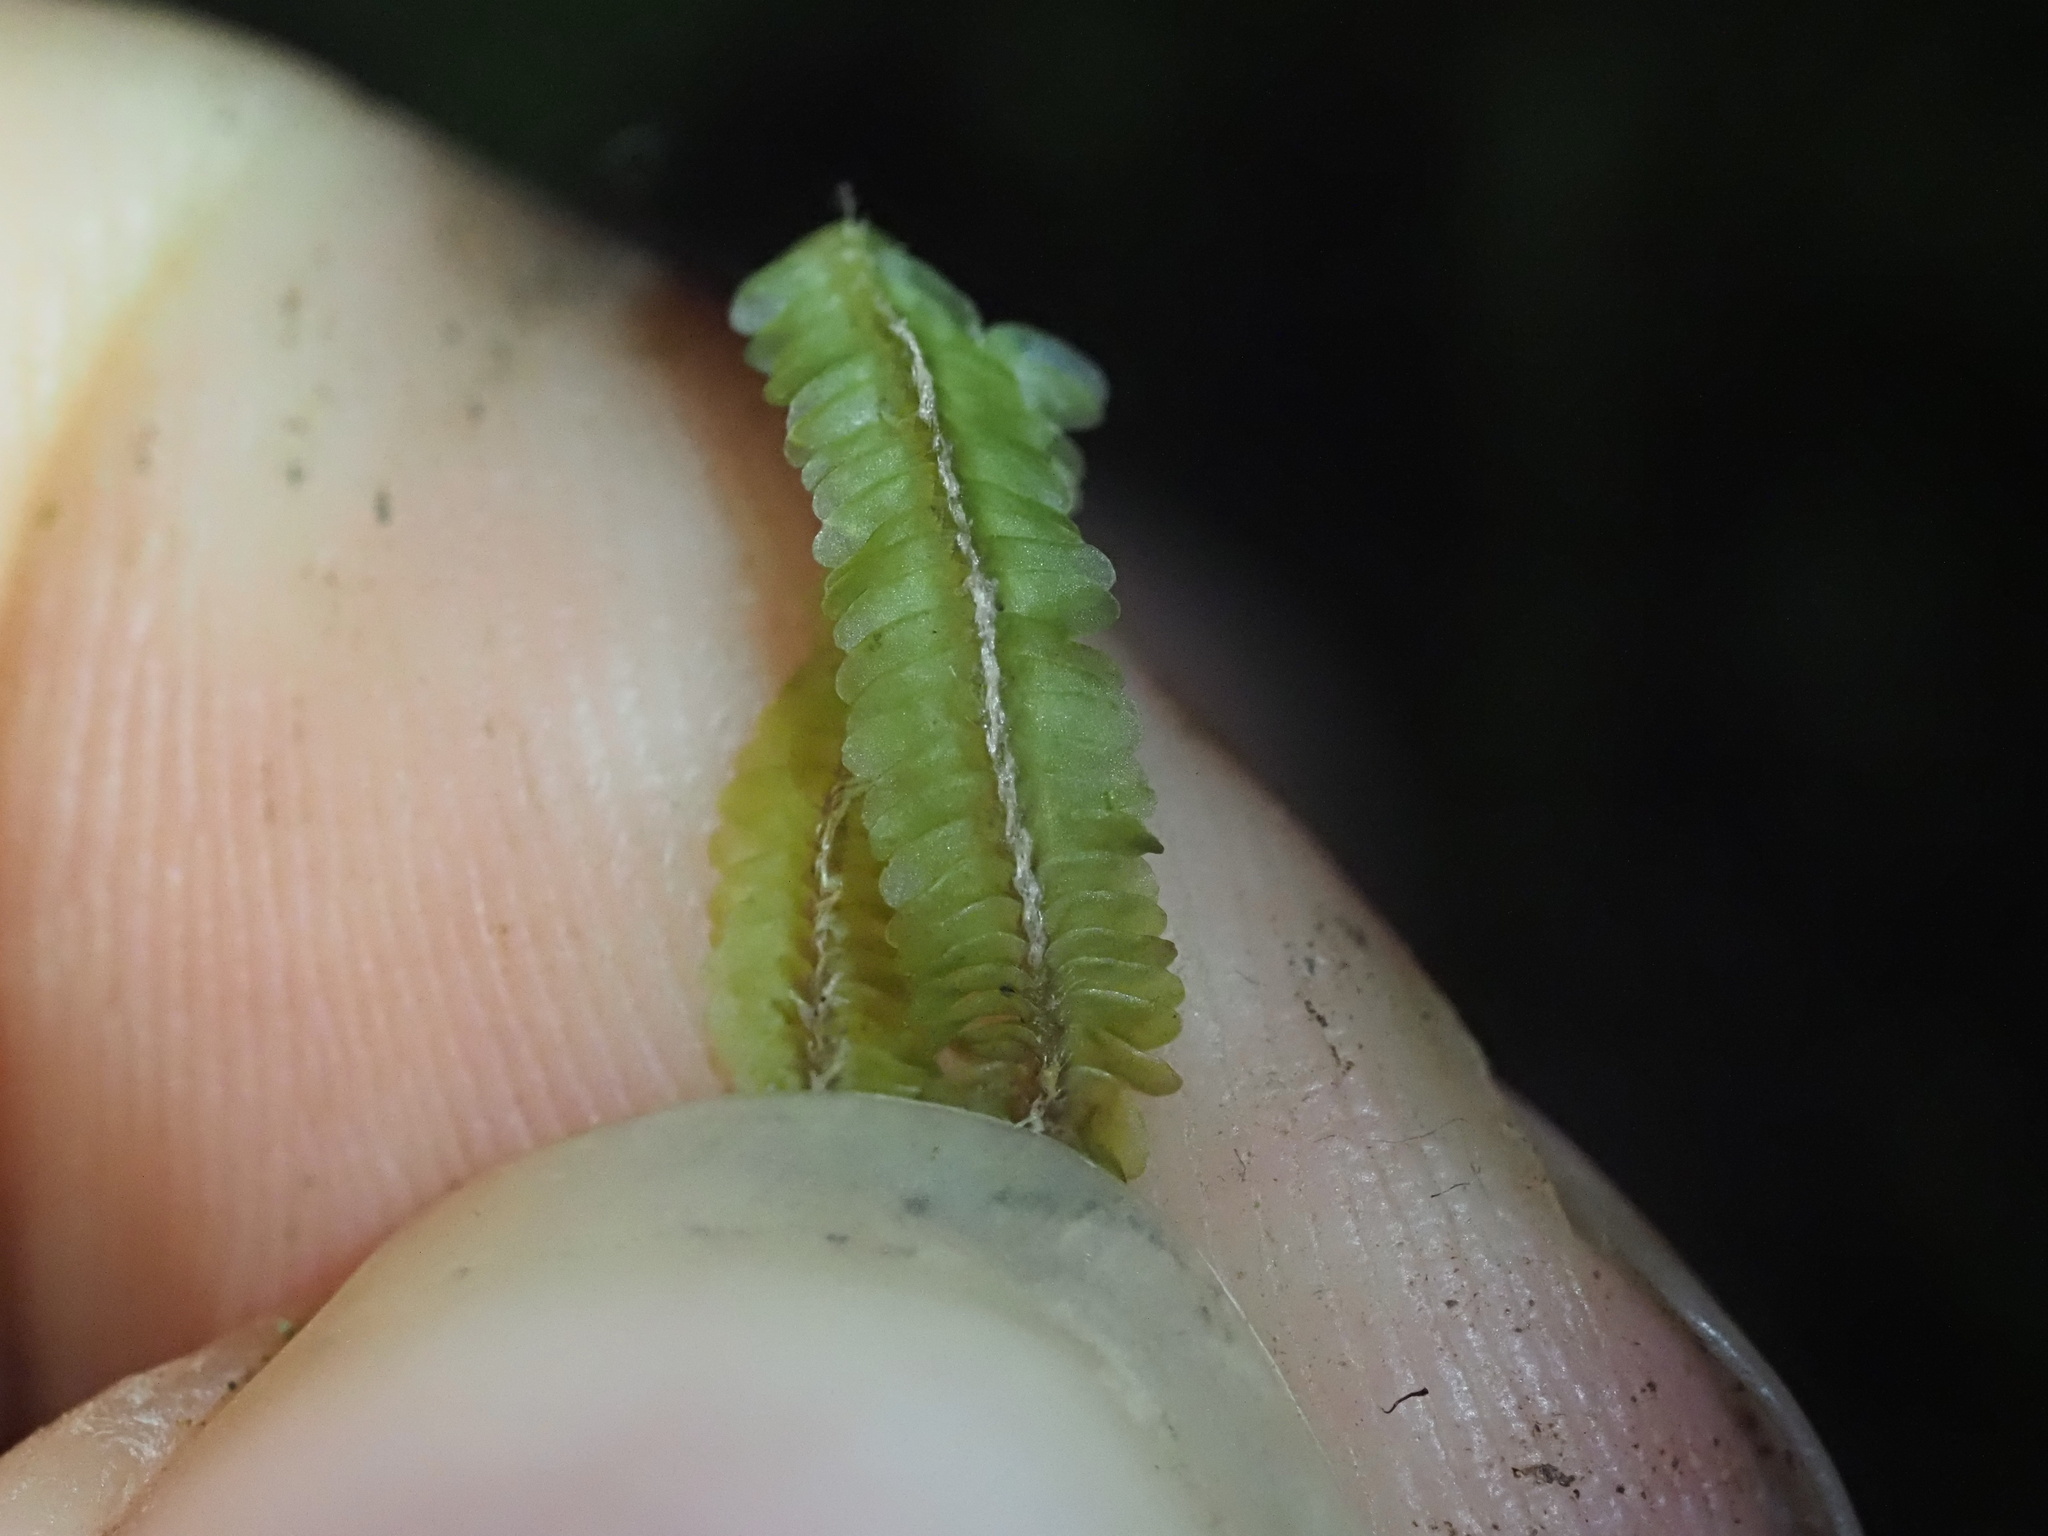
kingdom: Plantae
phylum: Marchantiophyta
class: Jungermanniopsida
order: Jungermanniales
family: Adelanthaceae
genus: Cuspidatula
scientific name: Cuspidatula robusta
